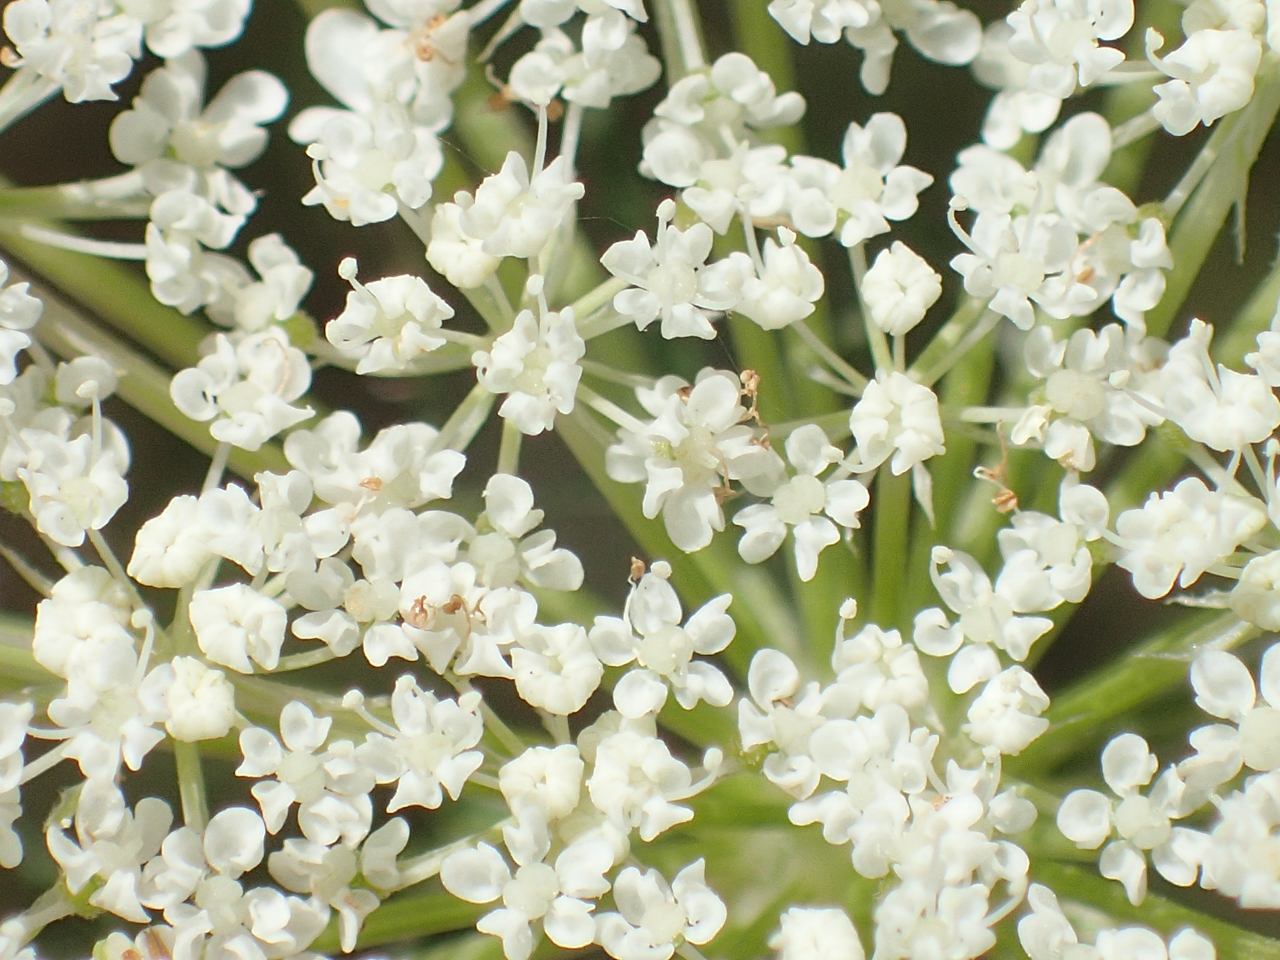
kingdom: Plantae
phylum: Tracheophyta
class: Magnoliopsida
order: Apiales
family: Apiaceae
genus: Daucus
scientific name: Daucus carota
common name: Wild carrot
